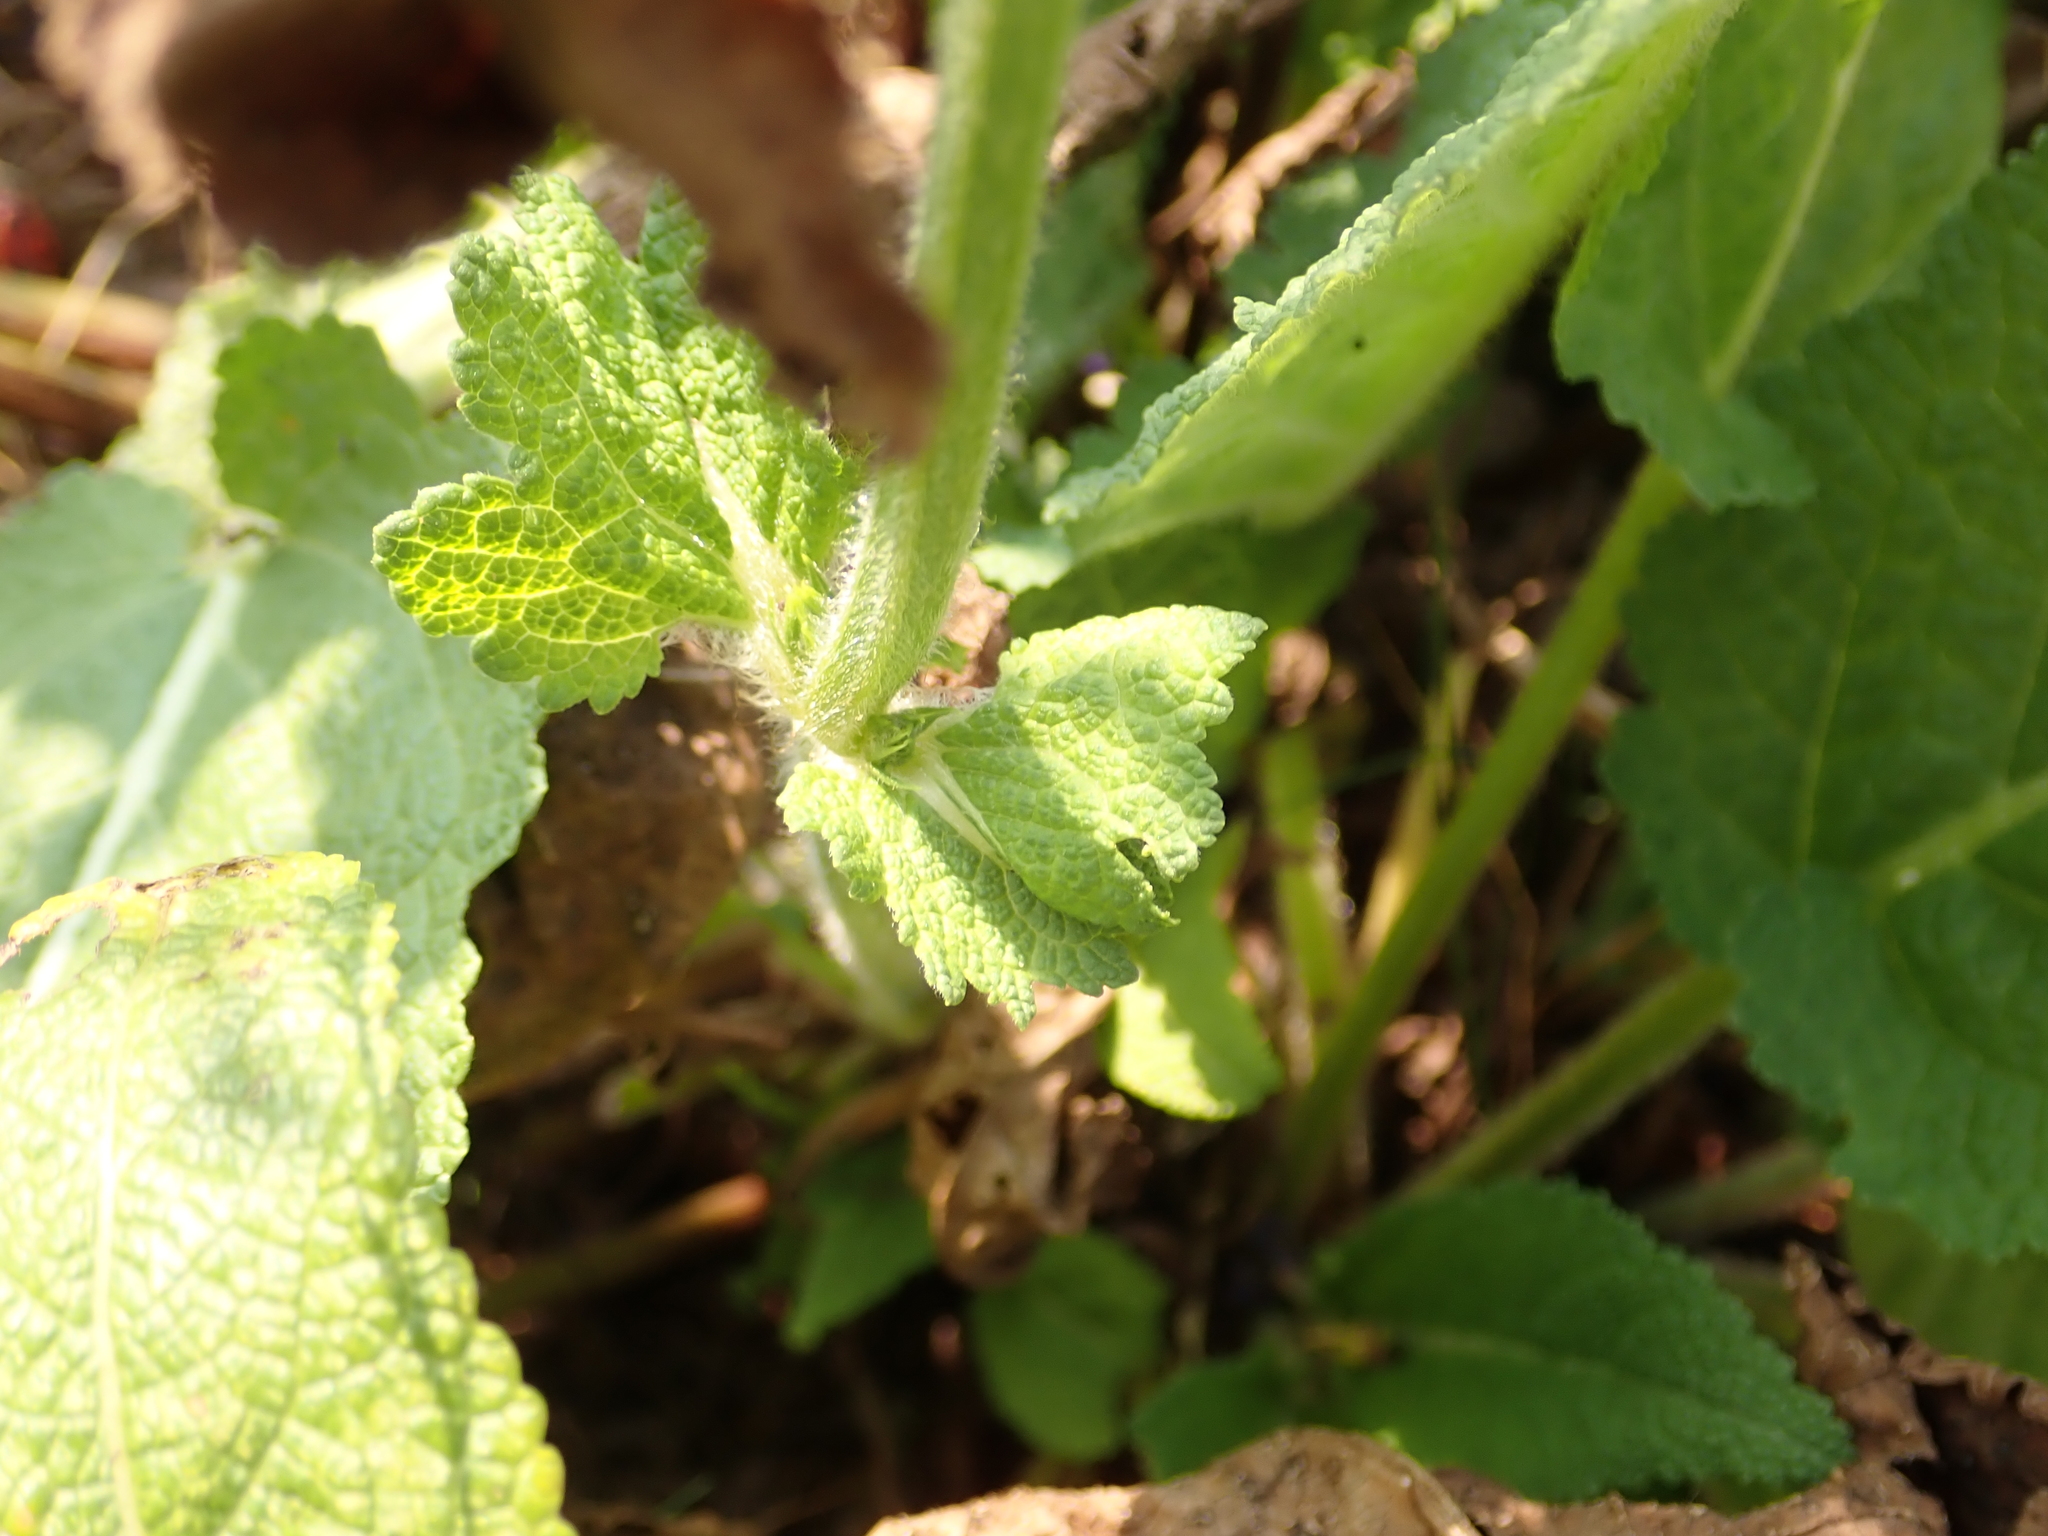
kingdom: Plantae
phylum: Tracheophyta
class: Magnoliopsida
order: Lamiales
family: Lamiaceae
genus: Salvia
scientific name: Salvia pratensis
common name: Meadow sage
